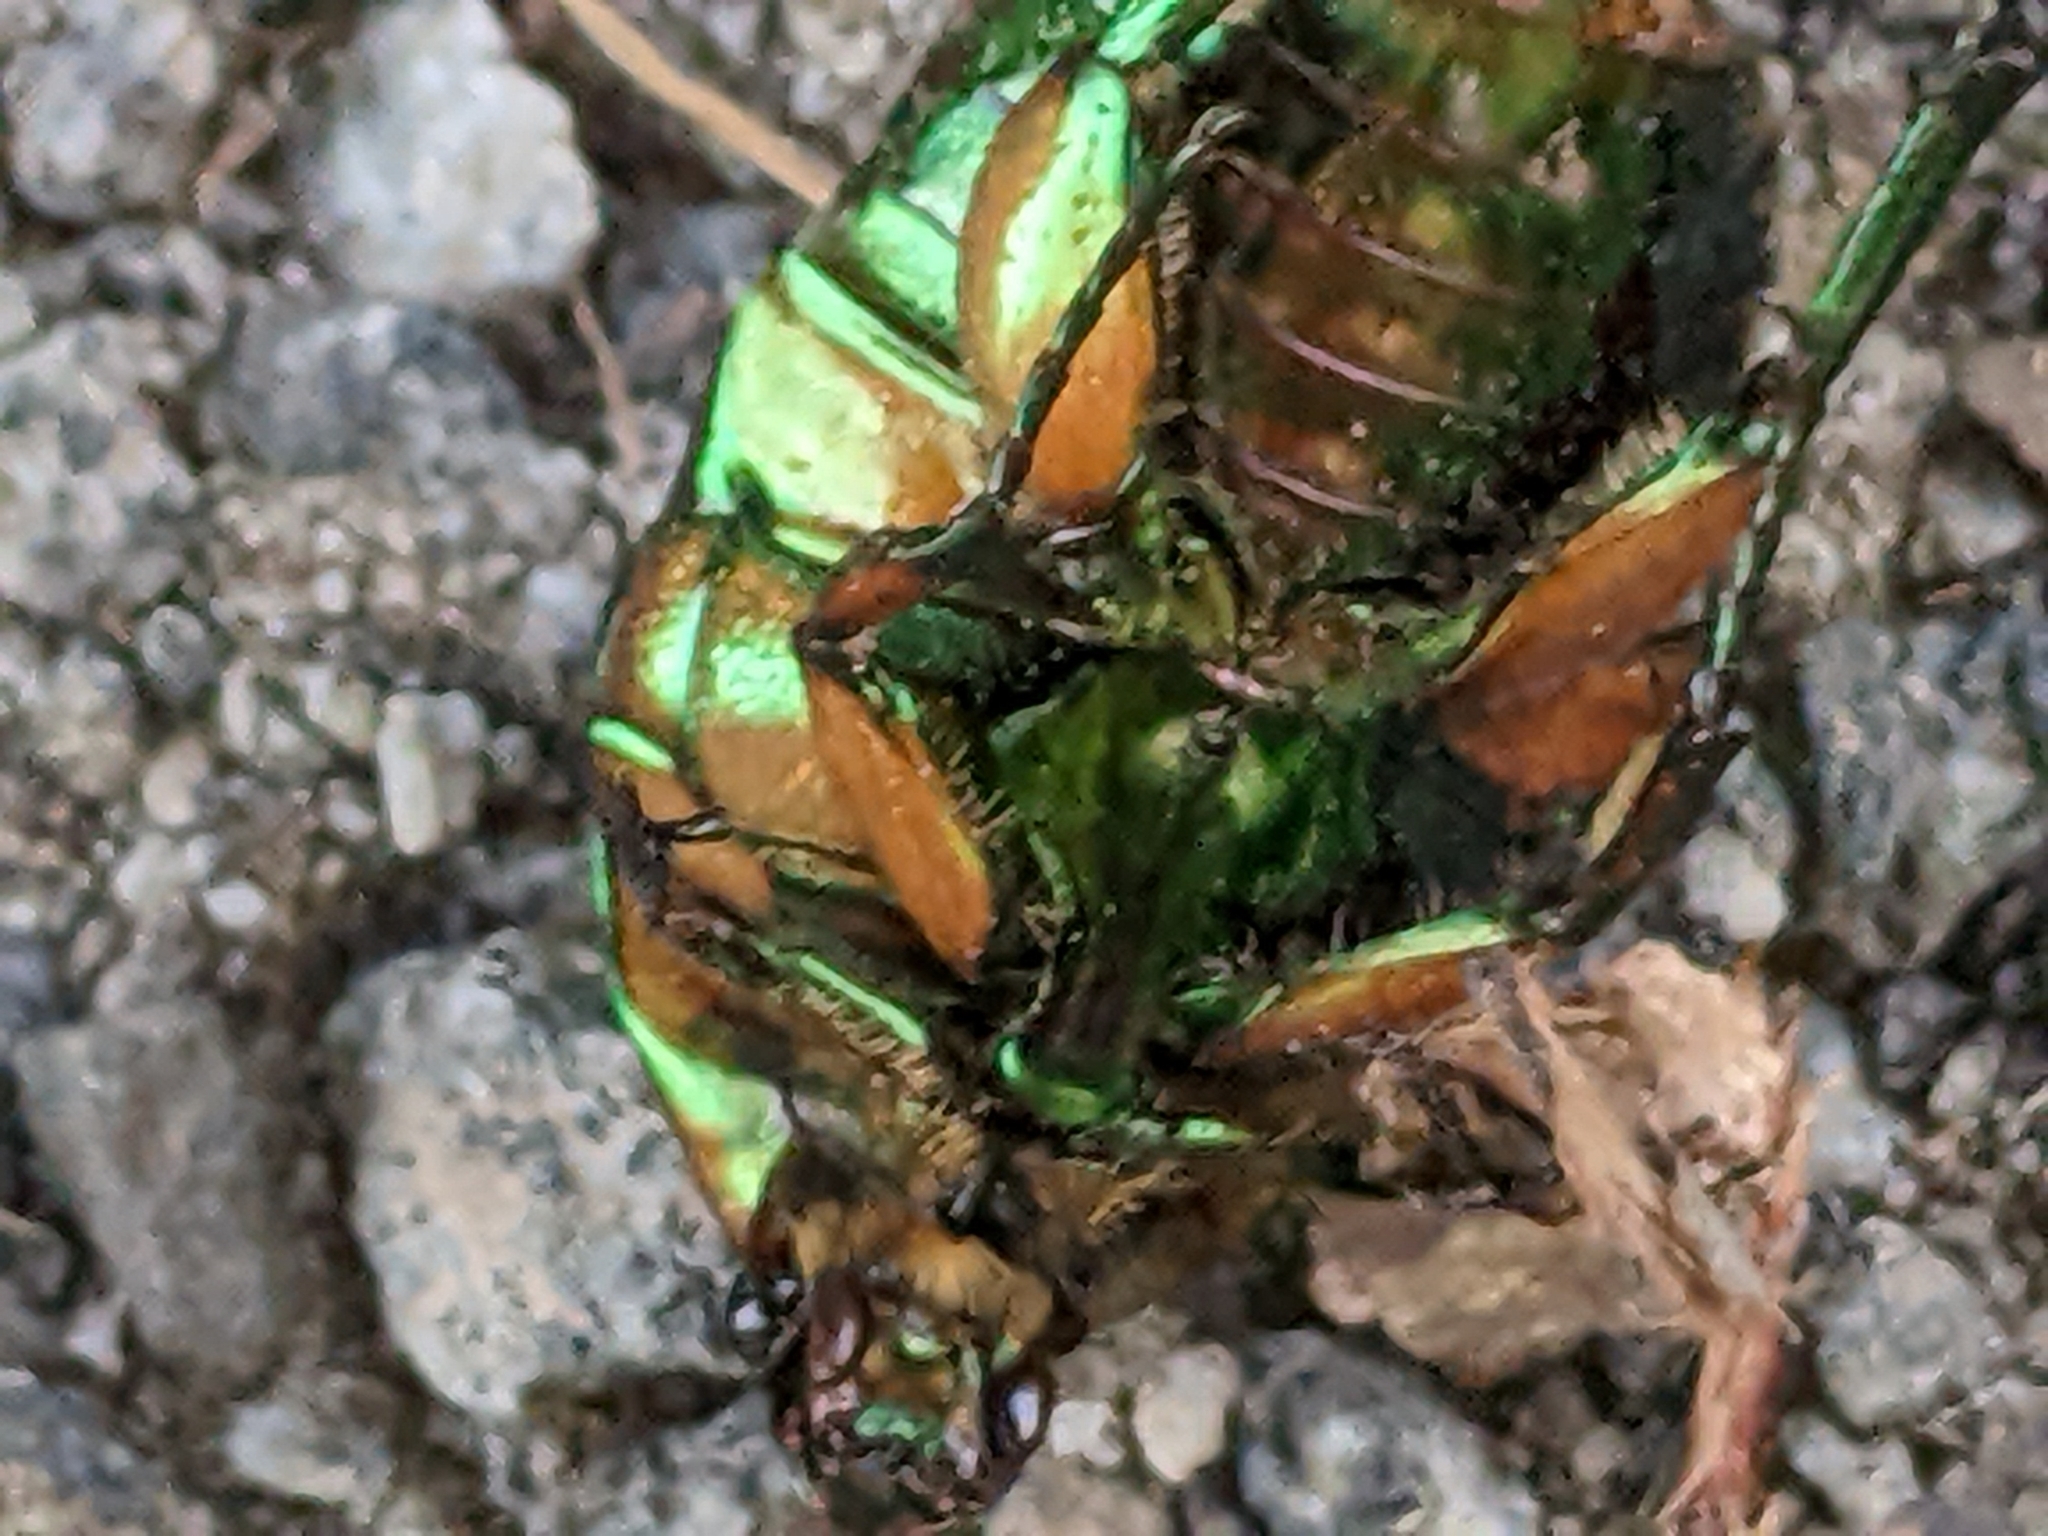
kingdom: Animalia
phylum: Arthropoda
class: Insecta
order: Coleoptera
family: Scarabaeidae
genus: Cotinis
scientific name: Cotinis nitida
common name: Common green june beetle
